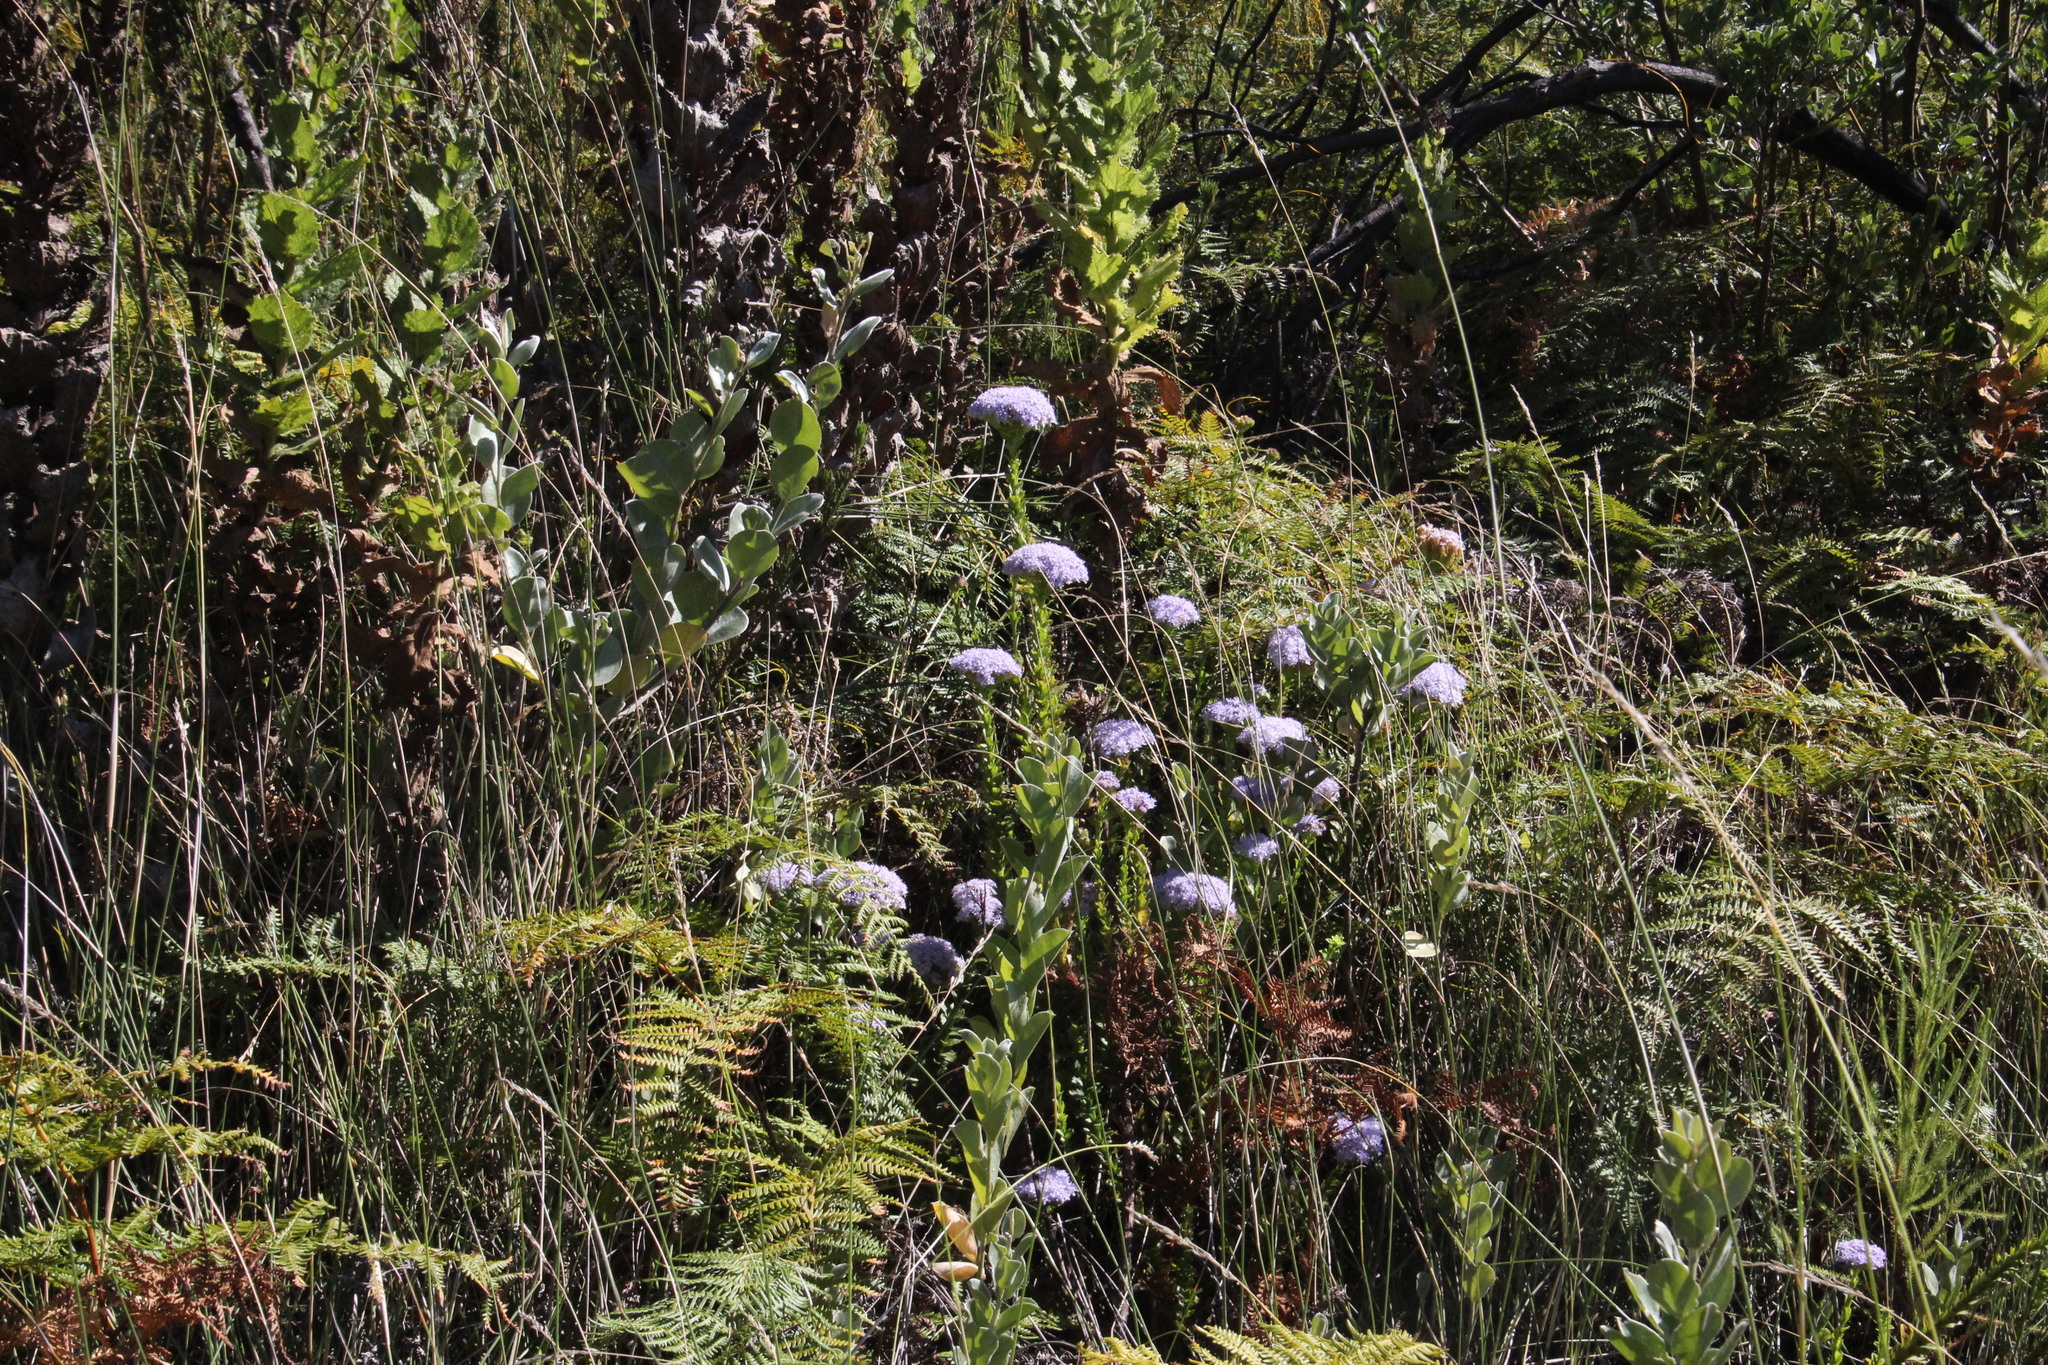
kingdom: Plantae
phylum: Tracheophyta
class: Magnoliopsida
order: Lamiales
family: Scrophulariaceae
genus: Pseudoselago
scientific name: Pseudoselago serrata
